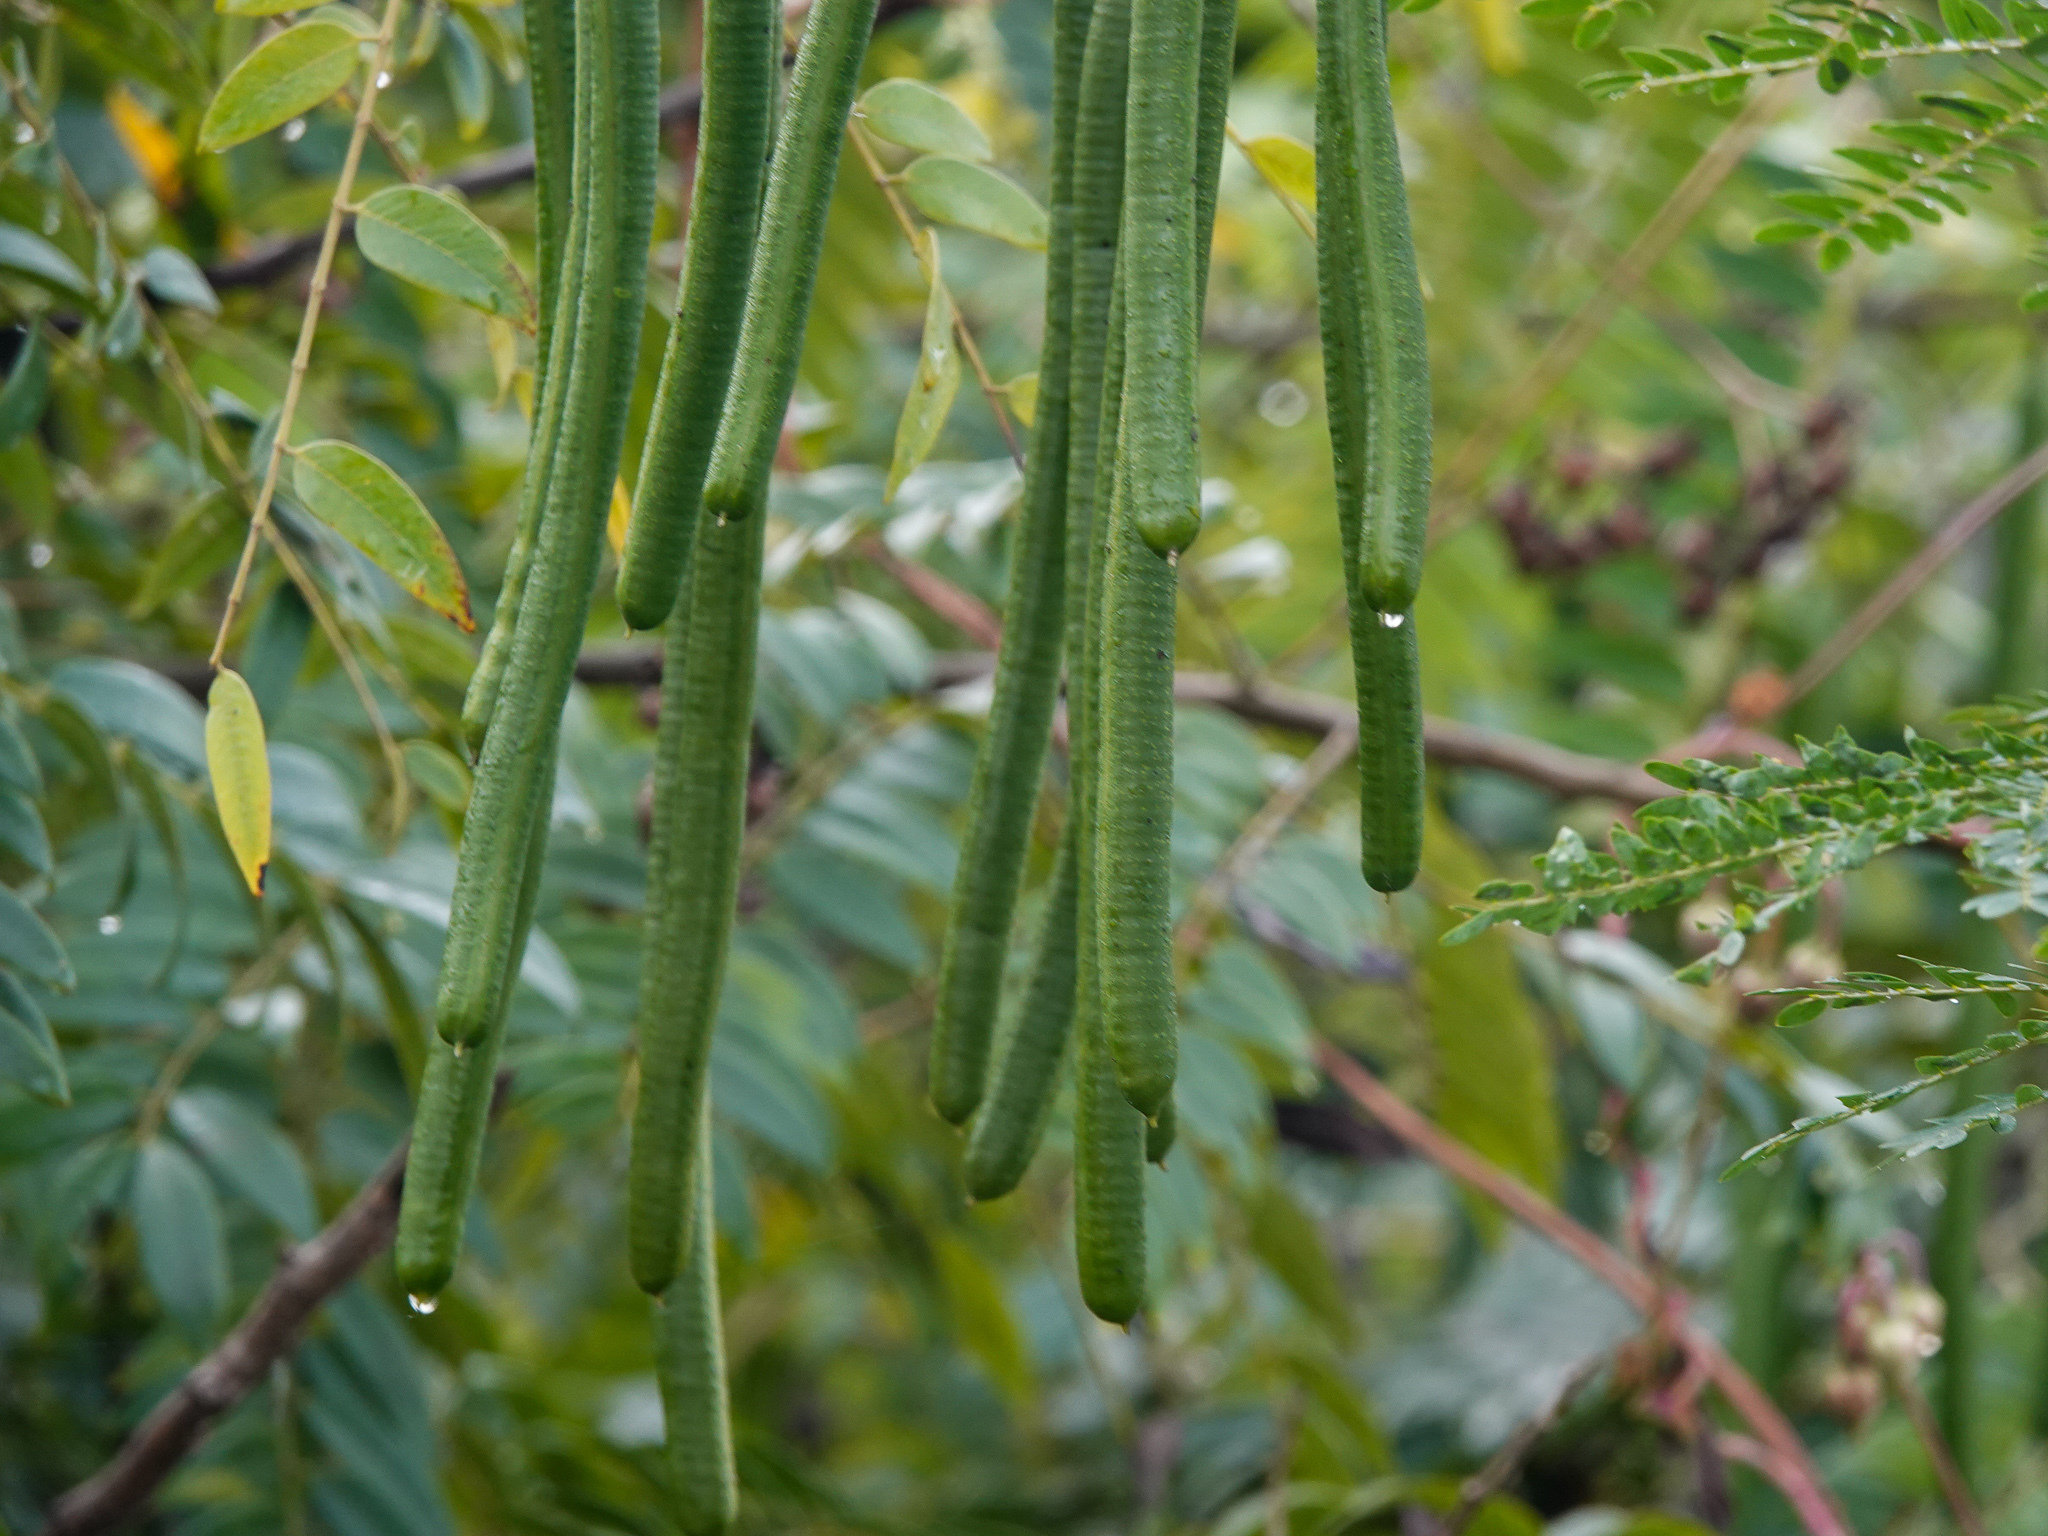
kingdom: Plantae
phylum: Tracheophyta
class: Magnoliopsida
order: Fabales
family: Fabaceae
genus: Senna
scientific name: Senna spectabilis
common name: Casia amarilla
